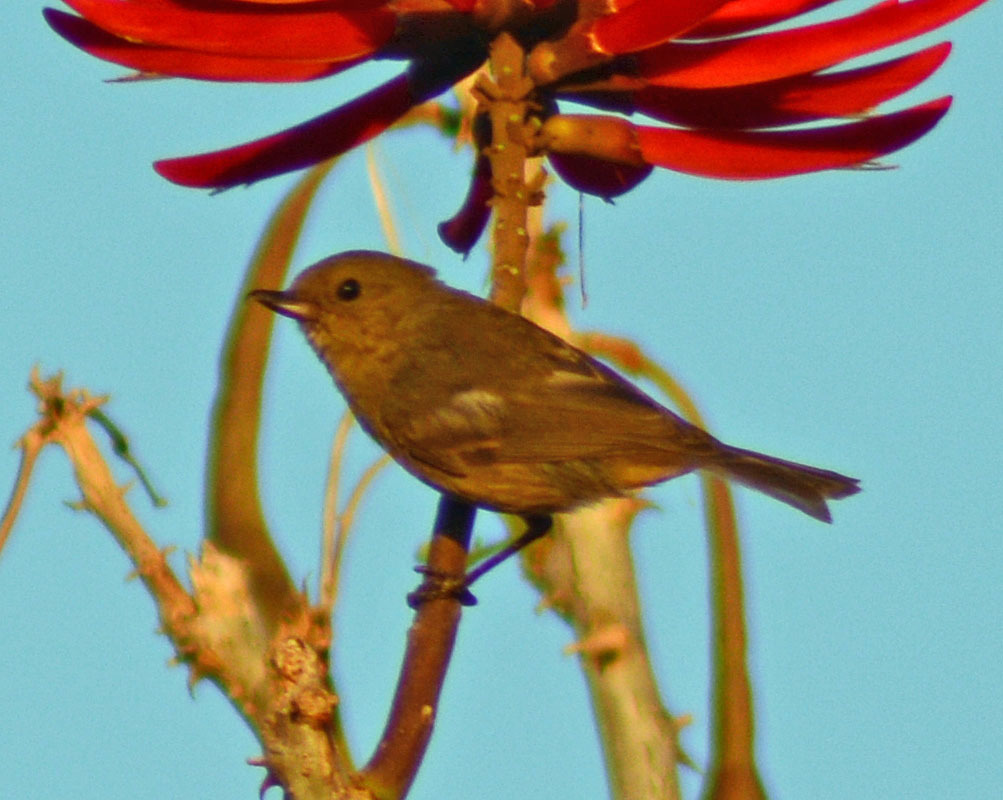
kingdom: Animalia
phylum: Chordata
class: Aves
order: Passeriformes
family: Thraupidae
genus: Diglossa
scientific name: Diglossa baritula
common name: Cinnamon-bellied flowerpiercer
